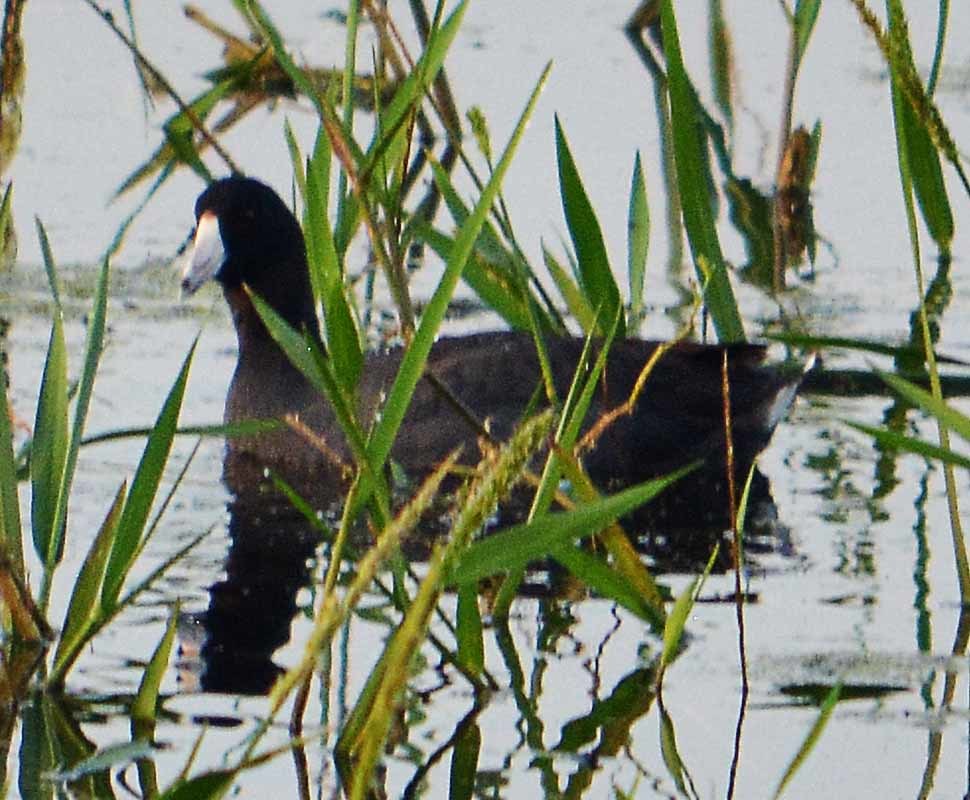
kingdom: Animalia
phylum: Chordata
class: Aves
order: Gruiformes
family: Rallidae
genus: Fulica
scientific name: Fulica americana
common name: American coot
